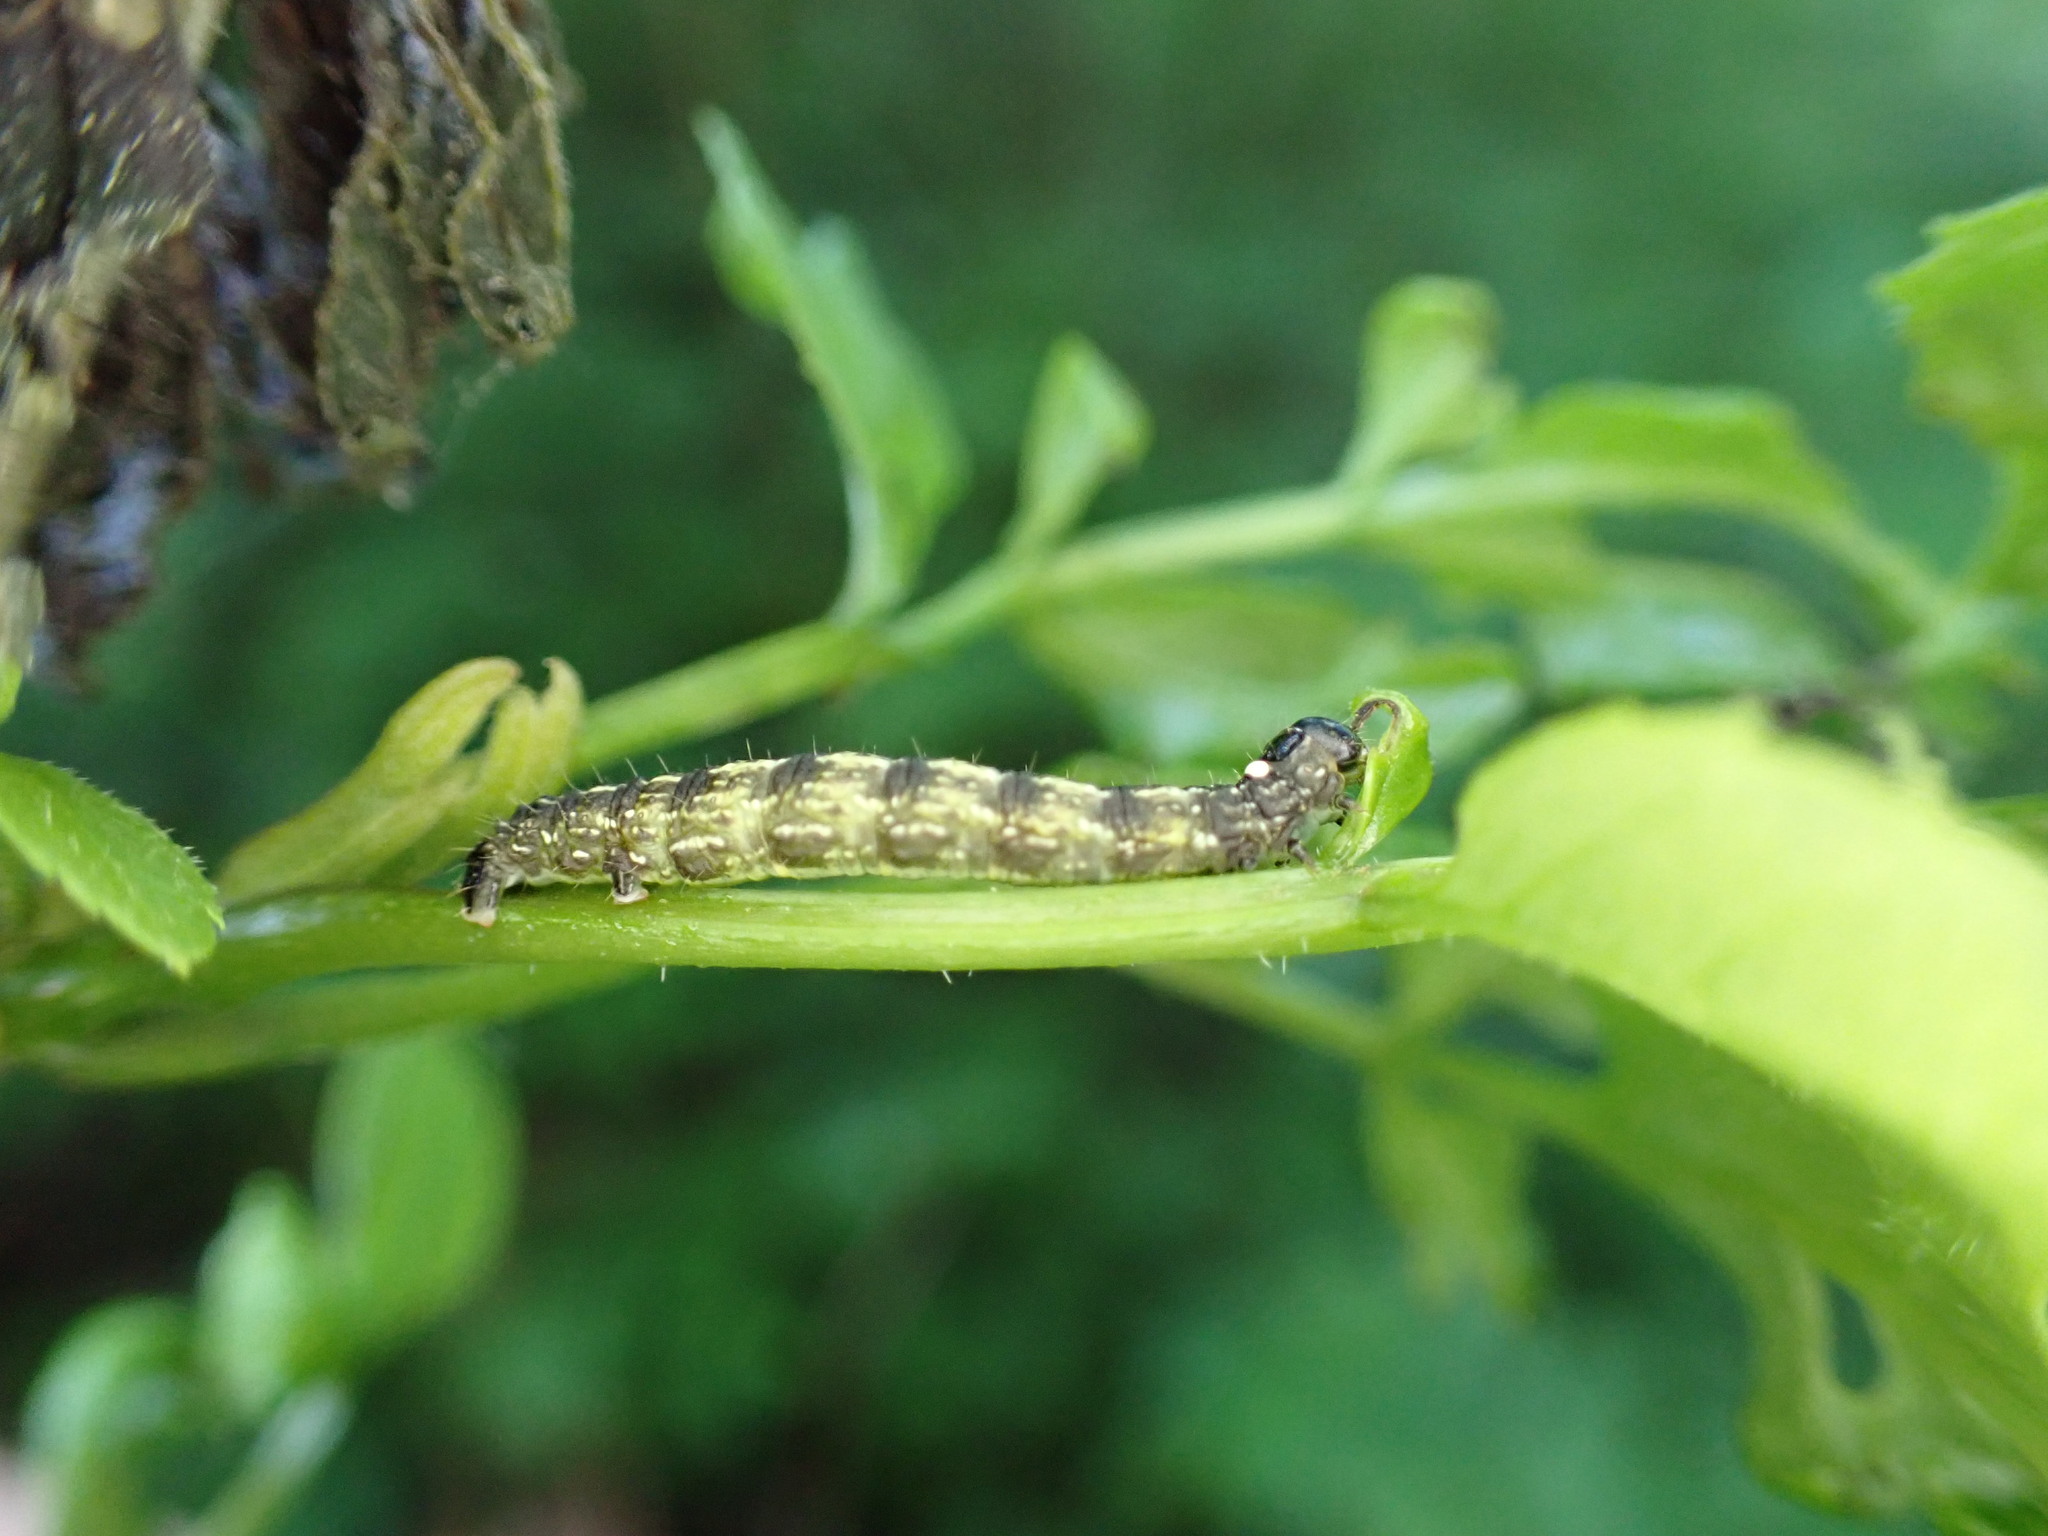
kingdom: Animalia
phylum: Arthropoda
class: Insecta
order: Lepidoptera
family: Geometridae
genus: Agriopis
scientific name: Agriopis leucophaearia
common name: Spring usher
